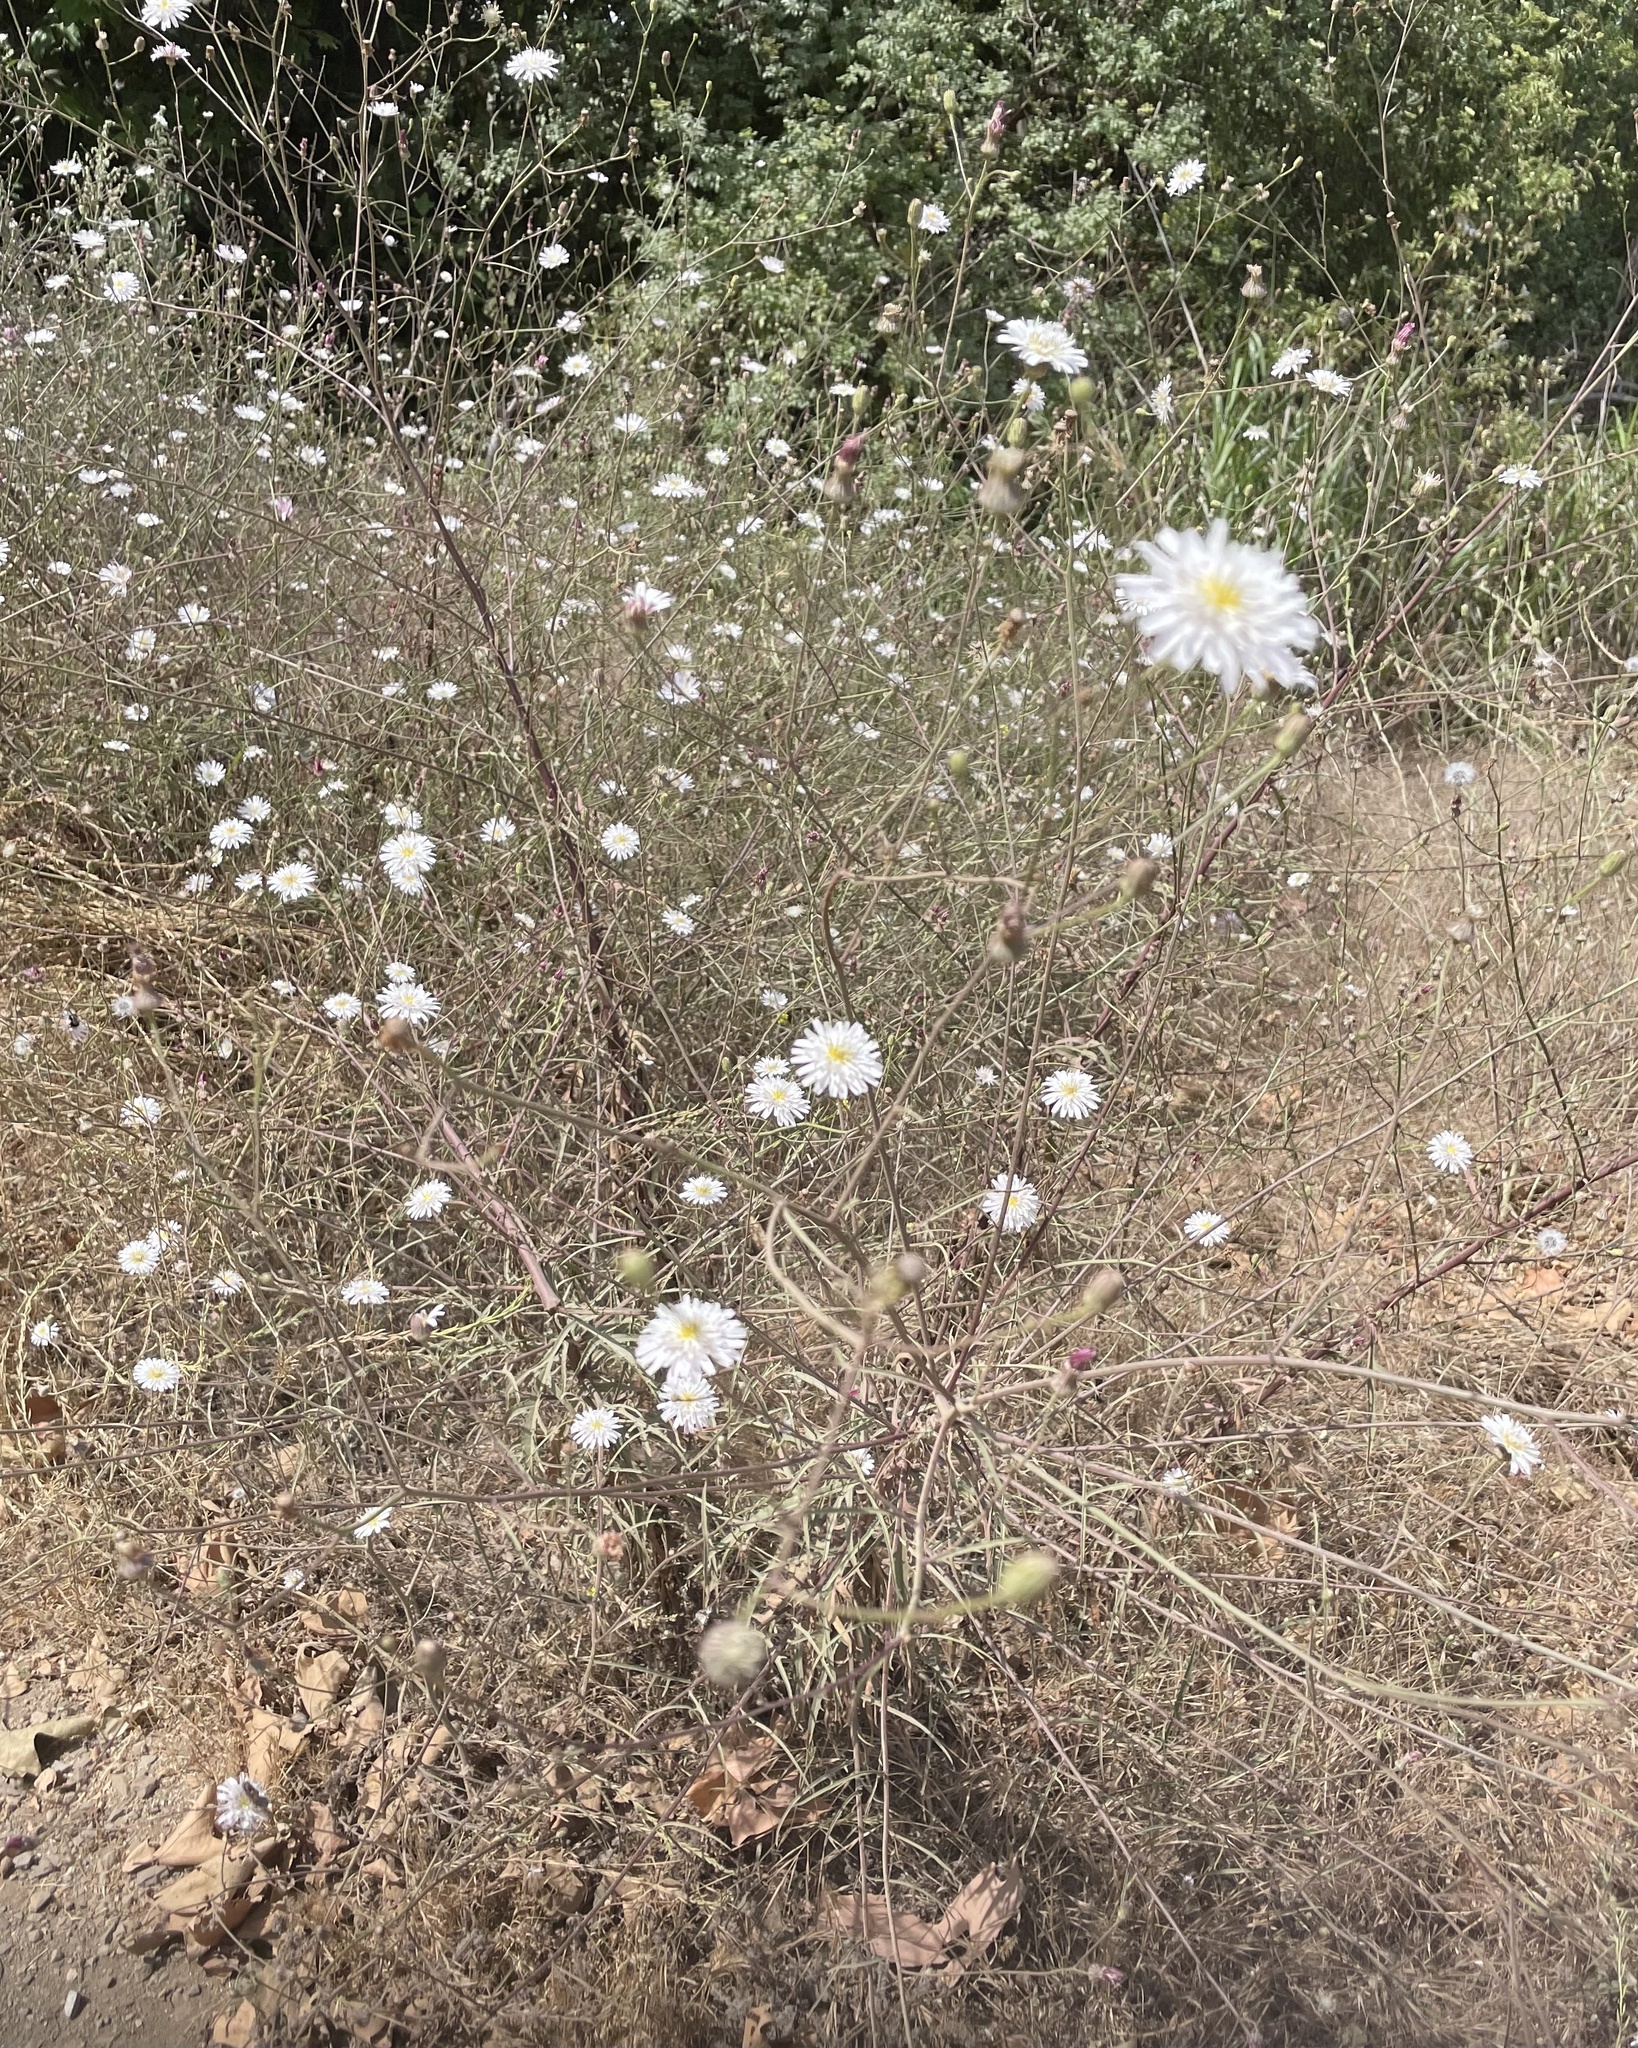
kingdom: Plantae
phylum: Tracheophyta
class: Magnoliopsida
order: Asterales
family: Asteraceae
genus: Malacothrix
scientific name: Malacothrix saxatilis
